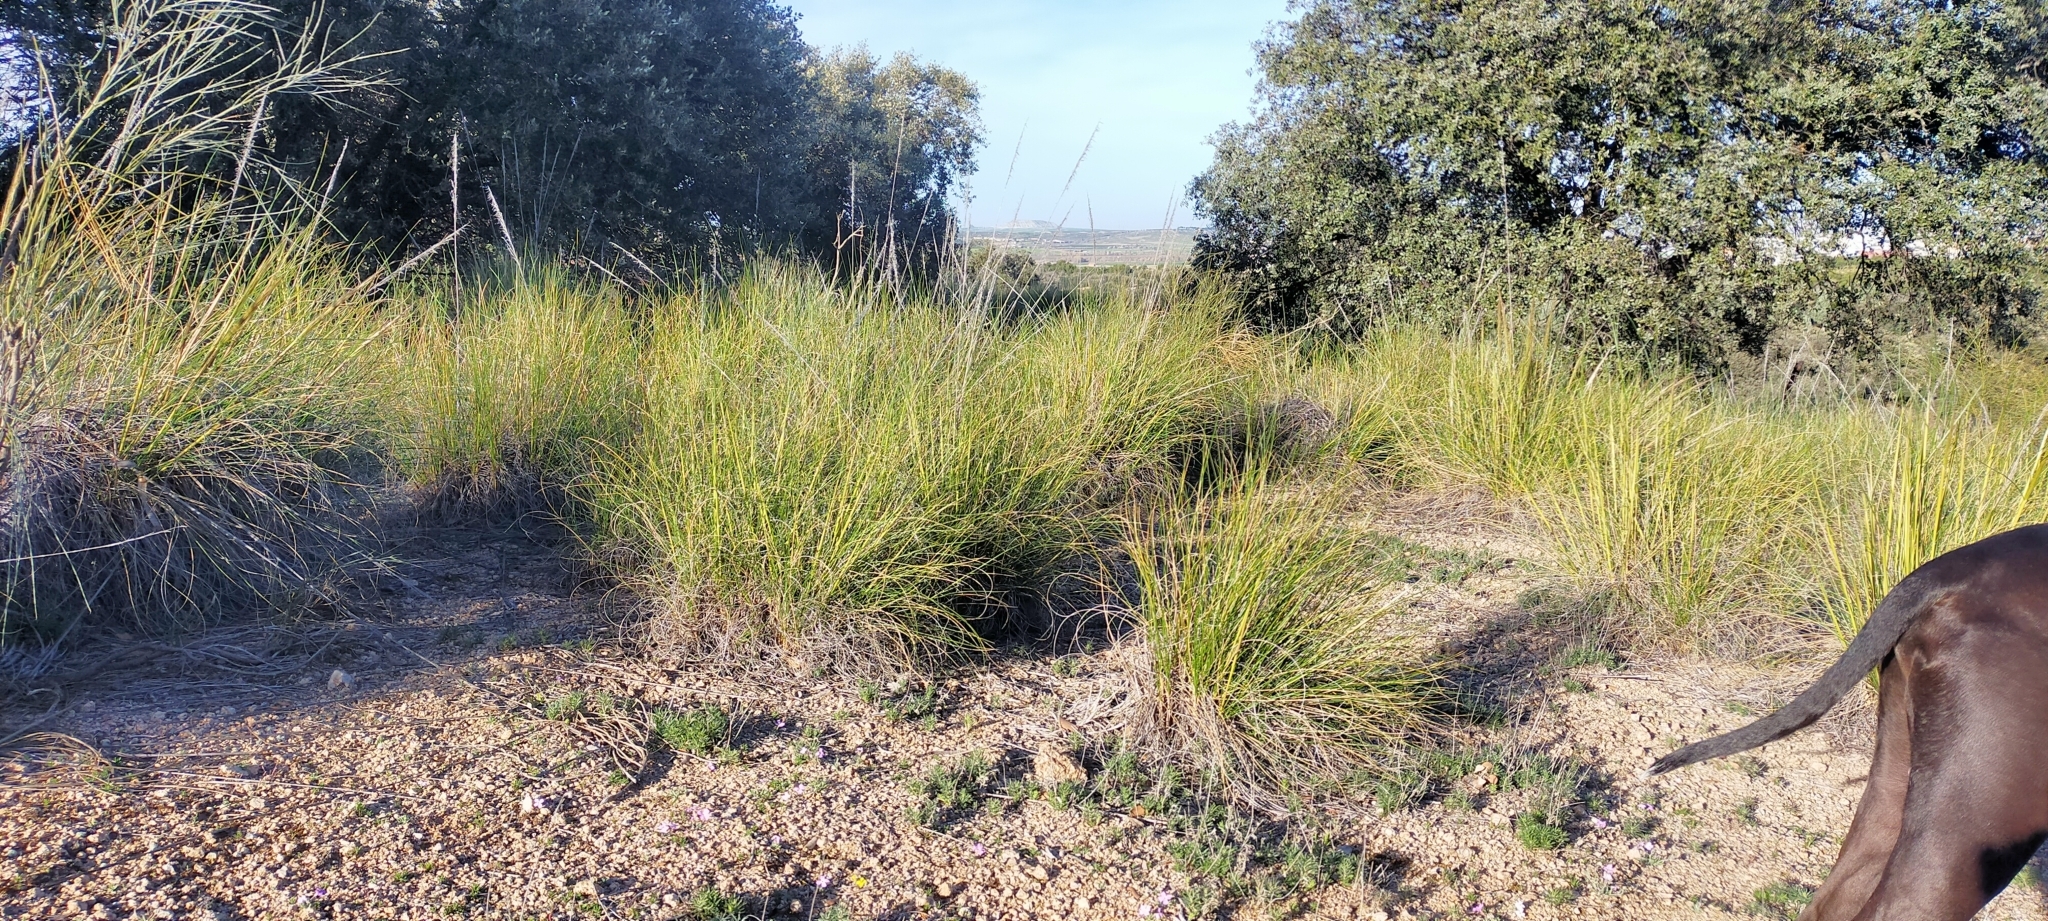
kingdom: Plantae
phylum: Tracheophyta
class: Liliopsida
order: Poales
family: Poaceae
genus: Macrochloa
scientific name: Macrochloa tenacissima
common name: Alfa grass
